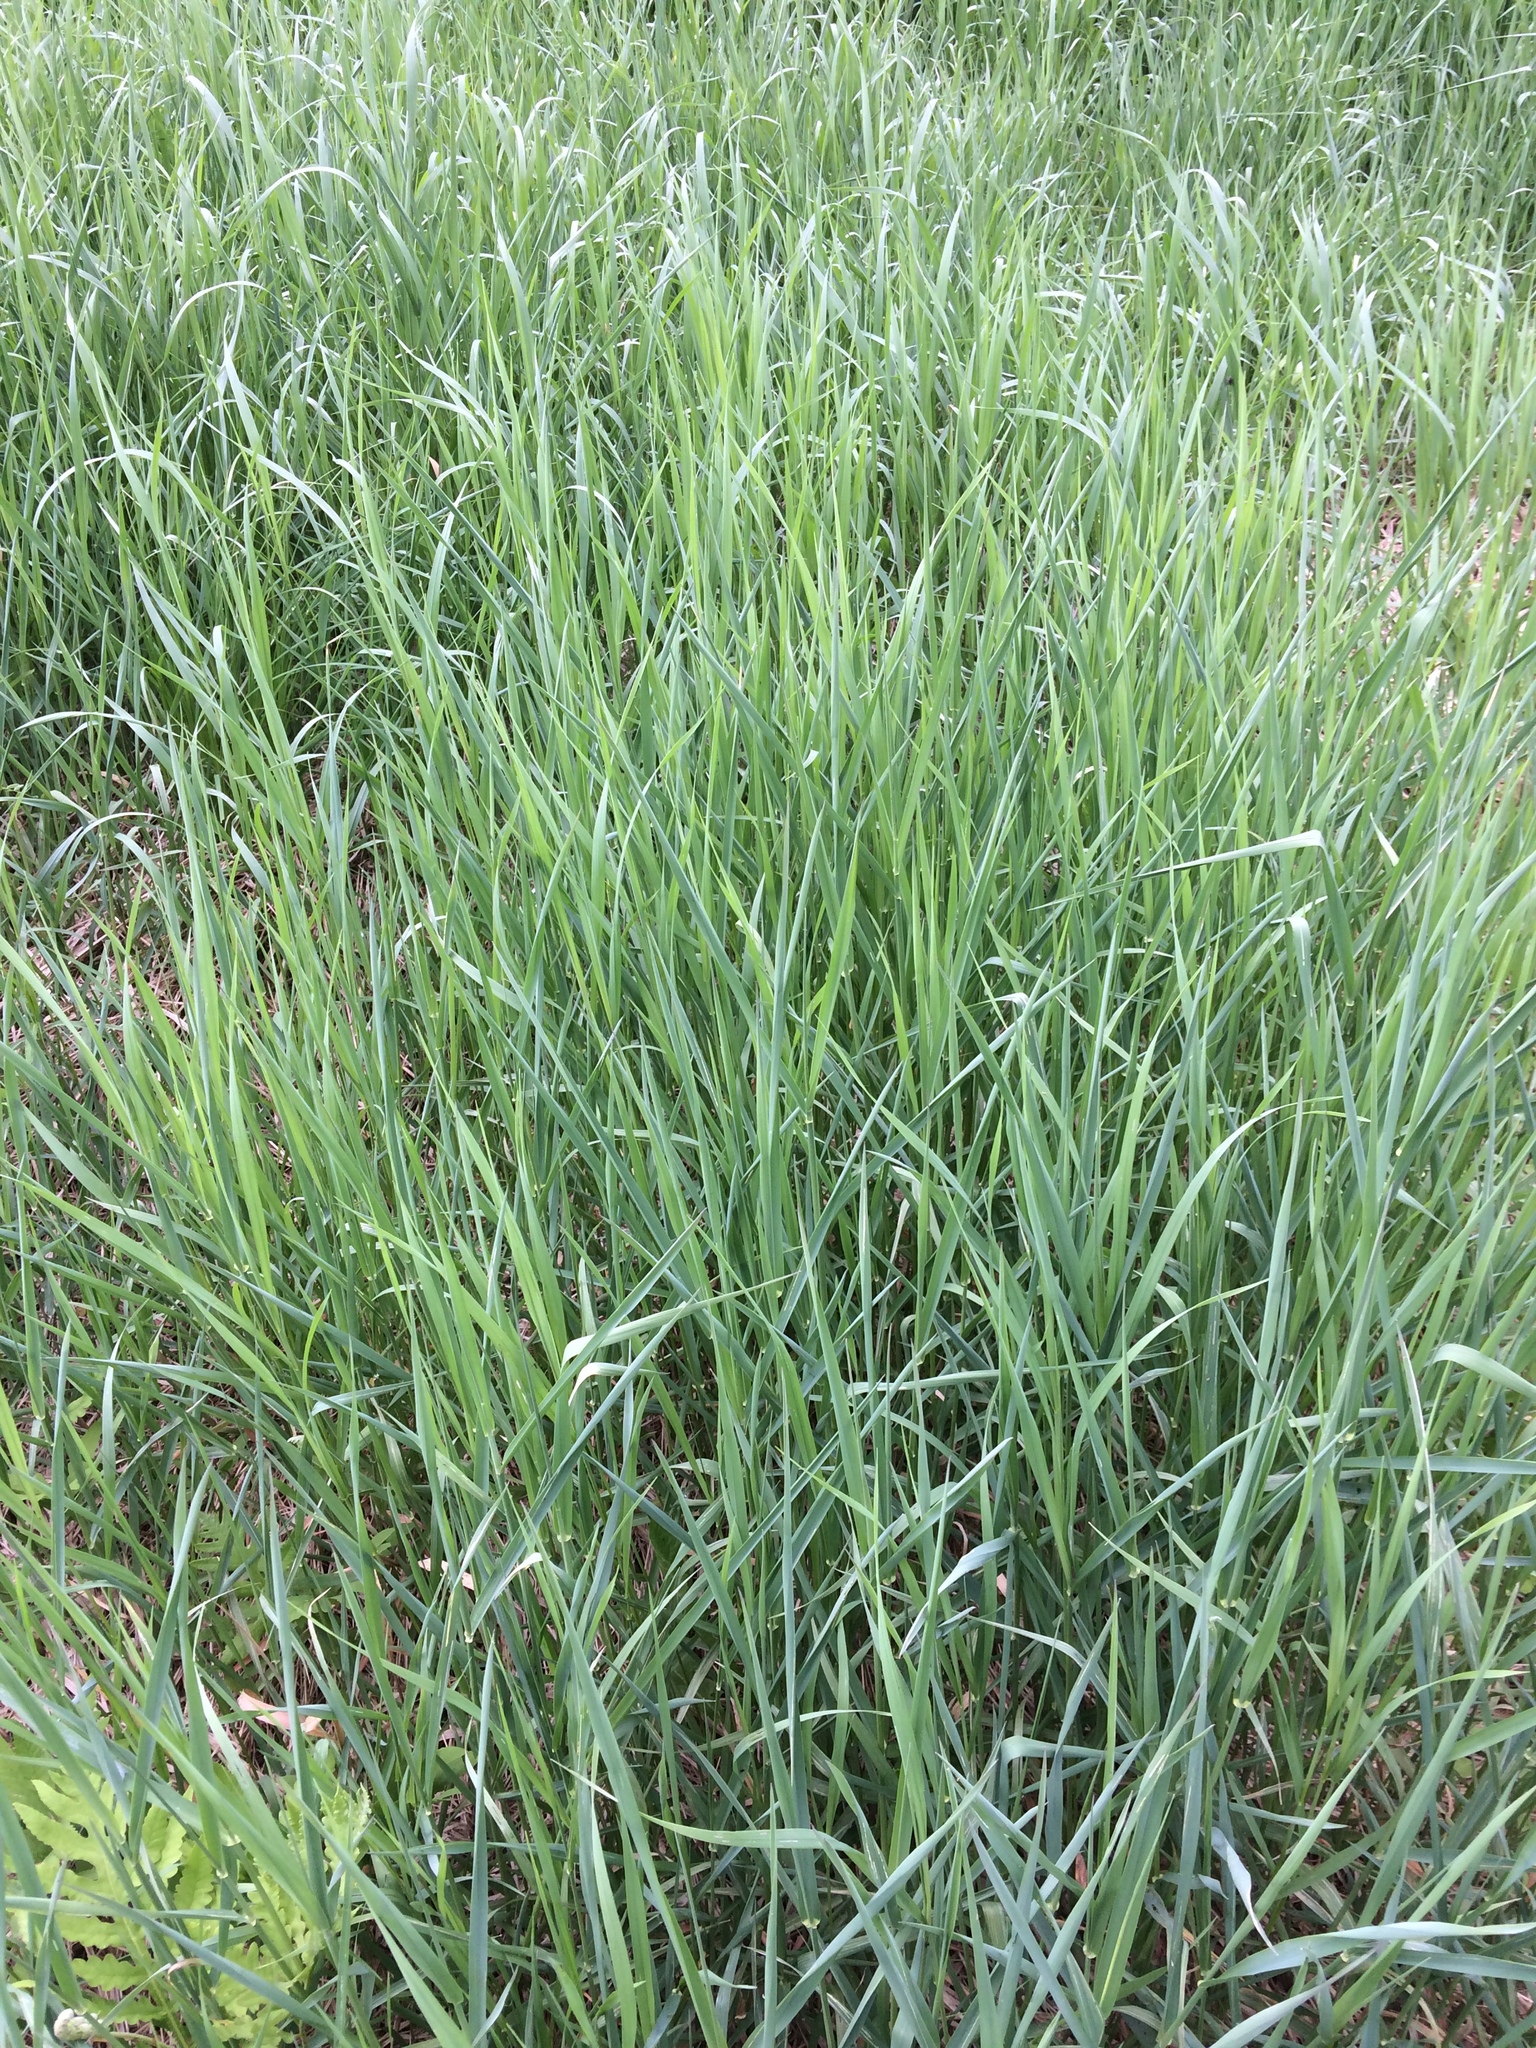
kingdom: Plantae
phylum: Tracheophyta
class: Liliopsida
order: Poales
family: Poaceae
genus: Phalaris
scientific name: Phalaris arundinacea
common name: Reed canary-grass
